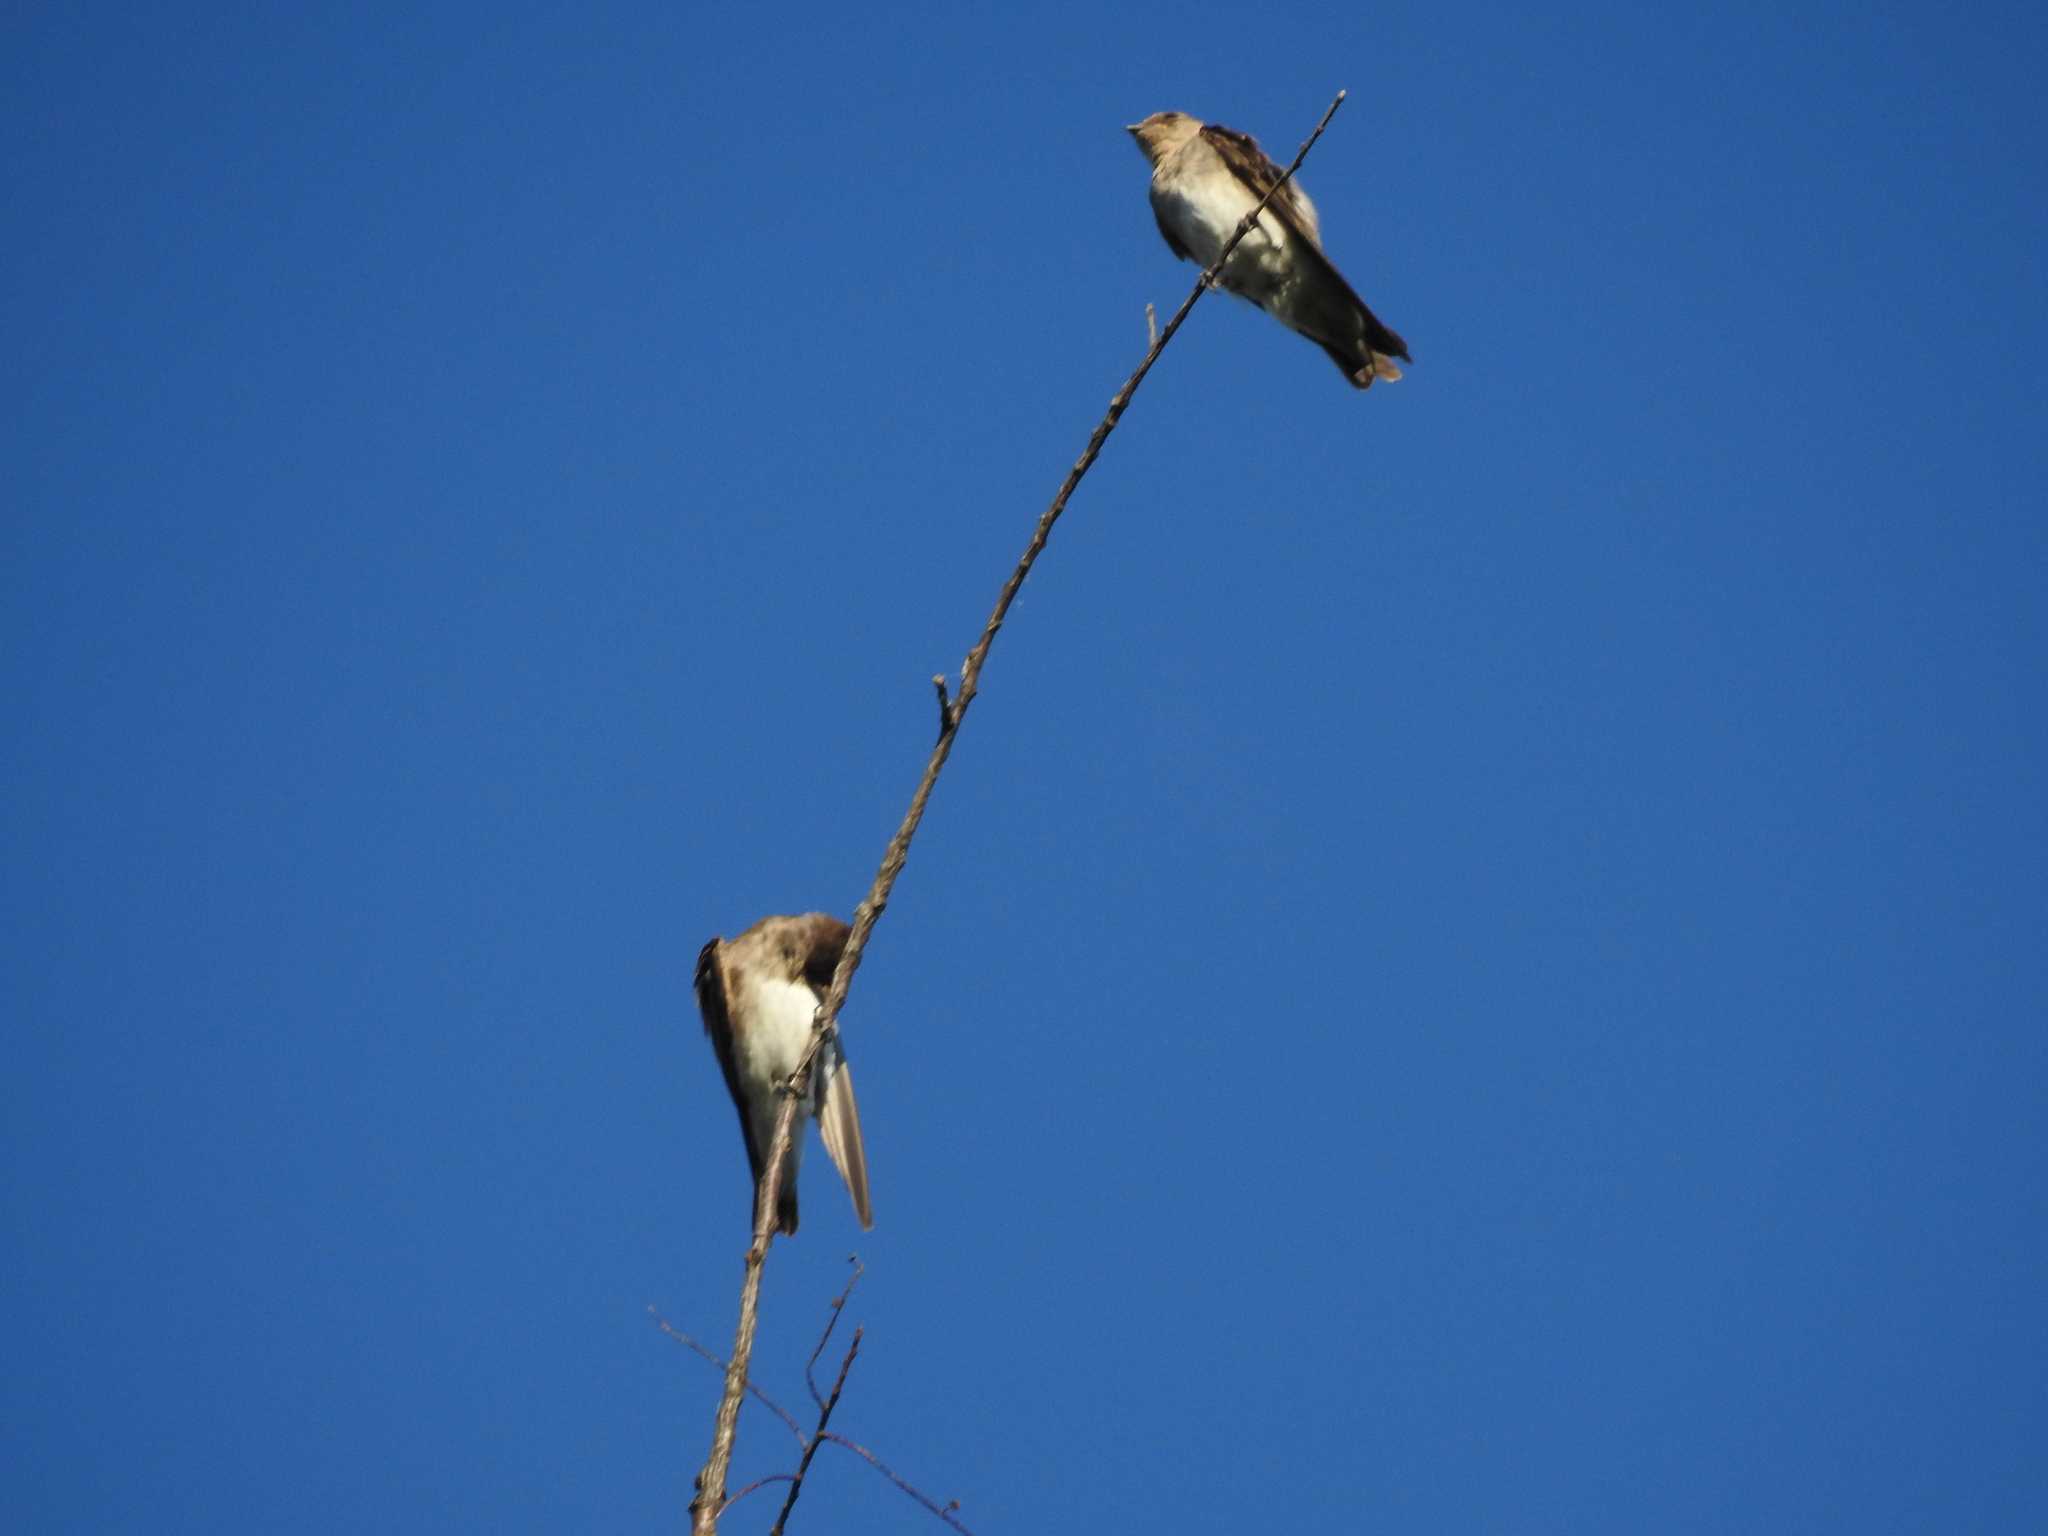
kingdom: Animalia
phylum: Chordata
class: Aves
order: Passeriformes
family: Hirundinidae
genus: Stelgidopteryx
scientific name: Stelgidopteryx serripennis
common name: Northern rough-winged swallow
